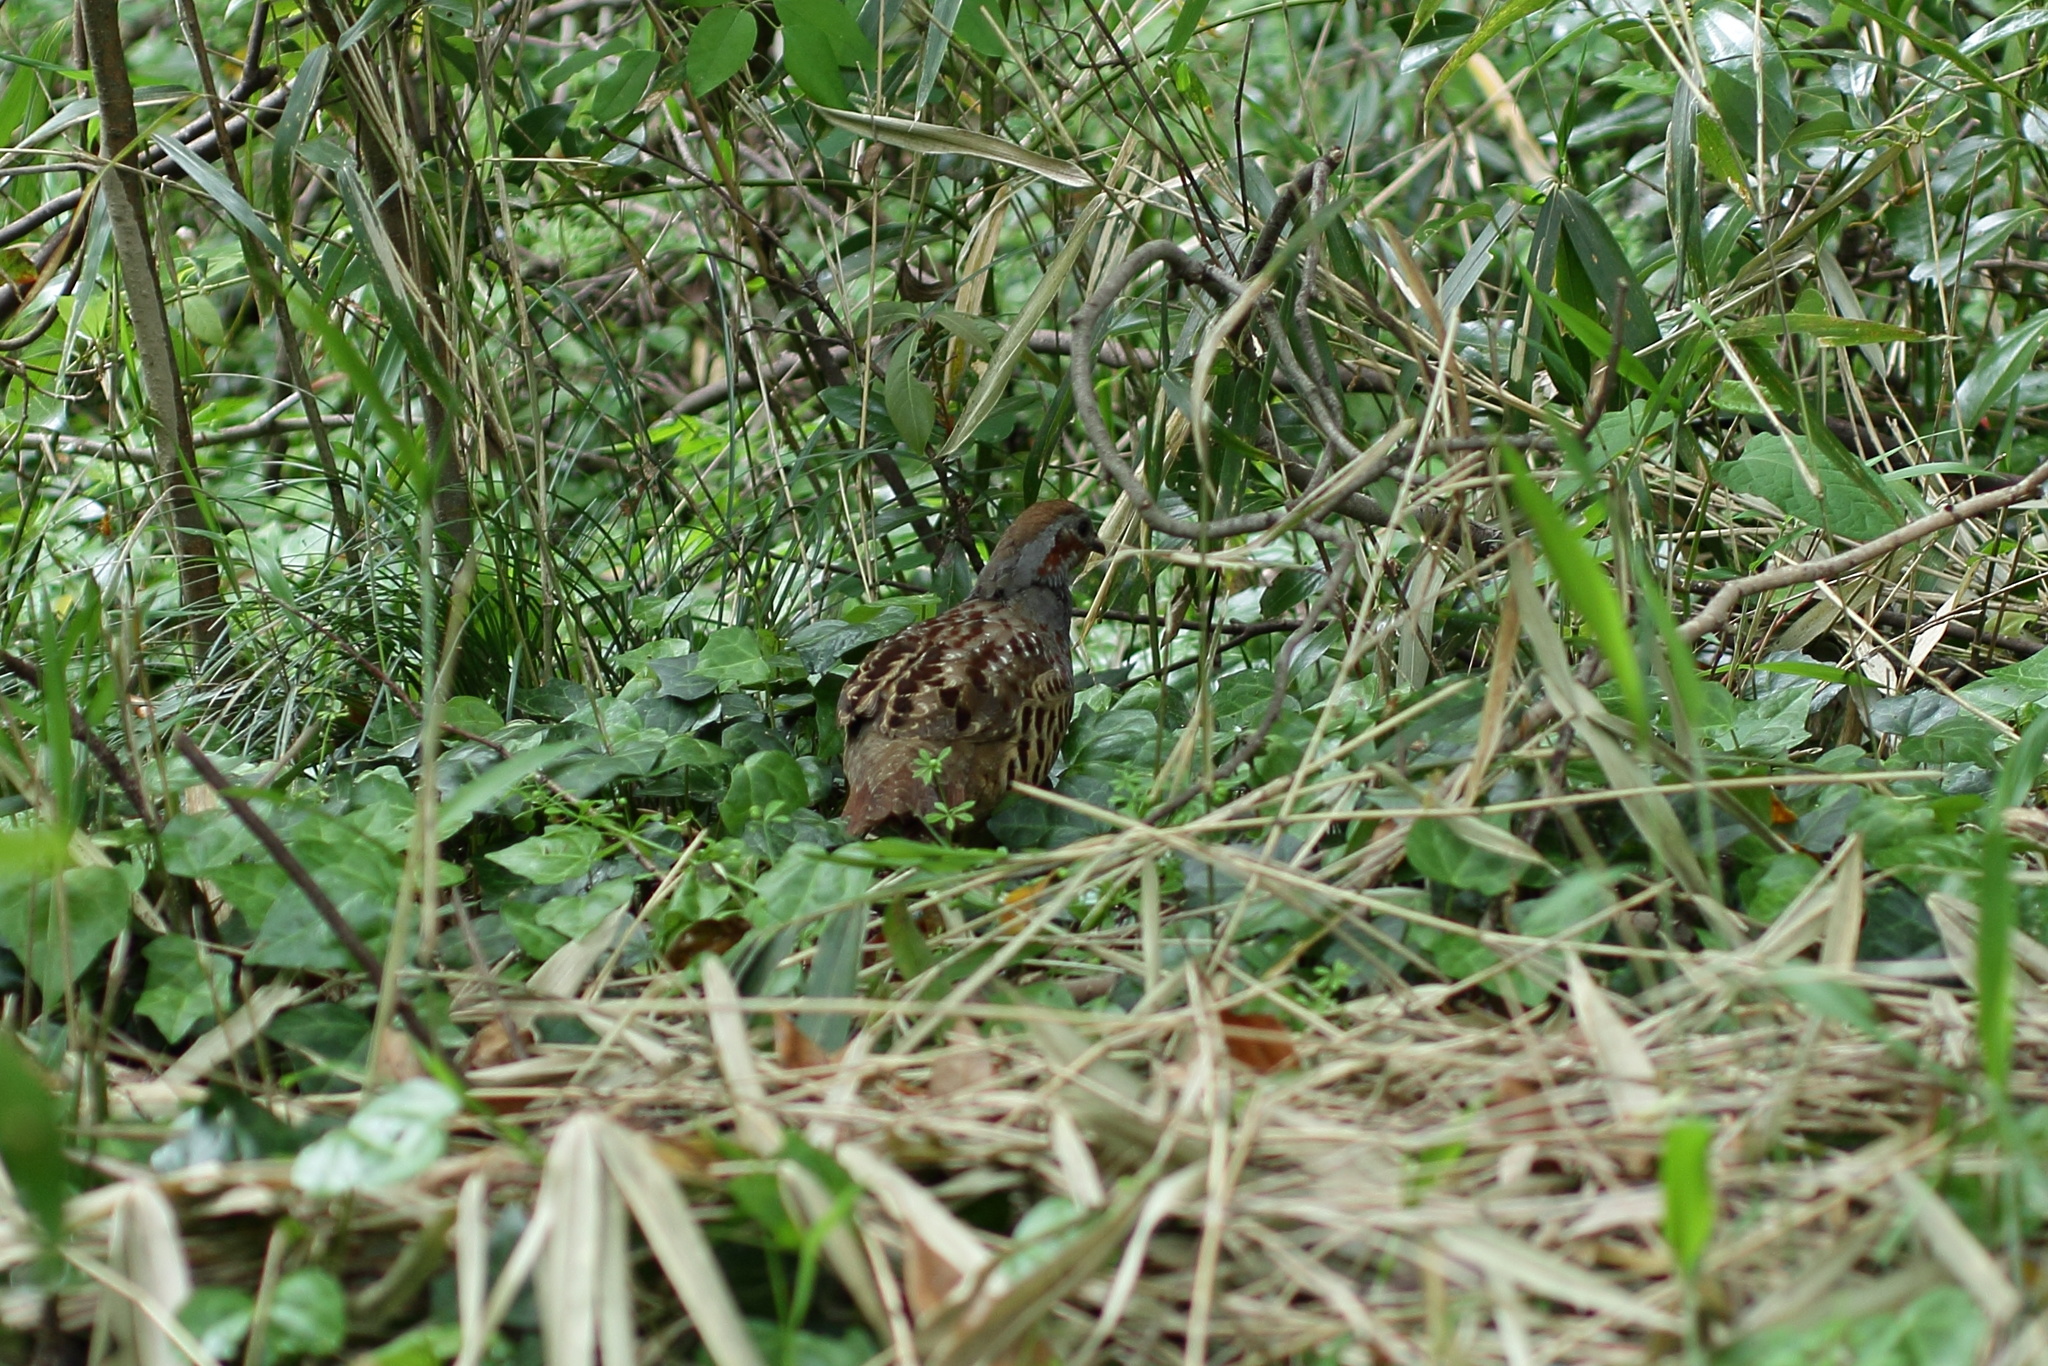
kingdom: Animalia
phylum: Chordata
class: Aves
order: Galliformes
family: Phasianidae
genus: Bambusicola
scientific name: Bambusicola thoracicus
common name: Chinese bamboo partridge
